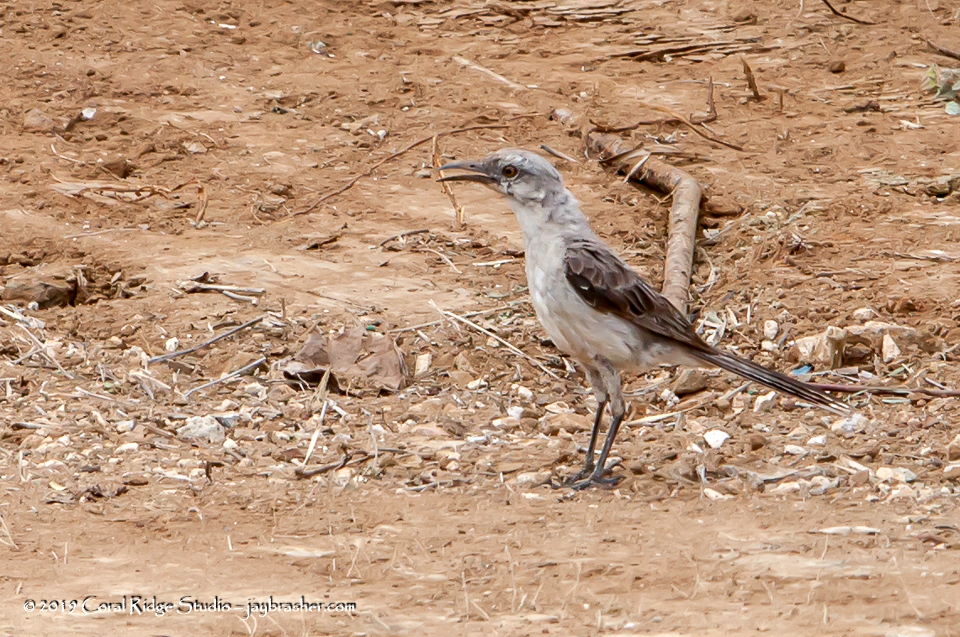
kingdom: Animalia
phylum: Chordata
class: Aves
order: Passeriformes
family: Mimidae
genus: Mimus
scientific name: Mimus gilvus
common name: Tropical mockingbird
